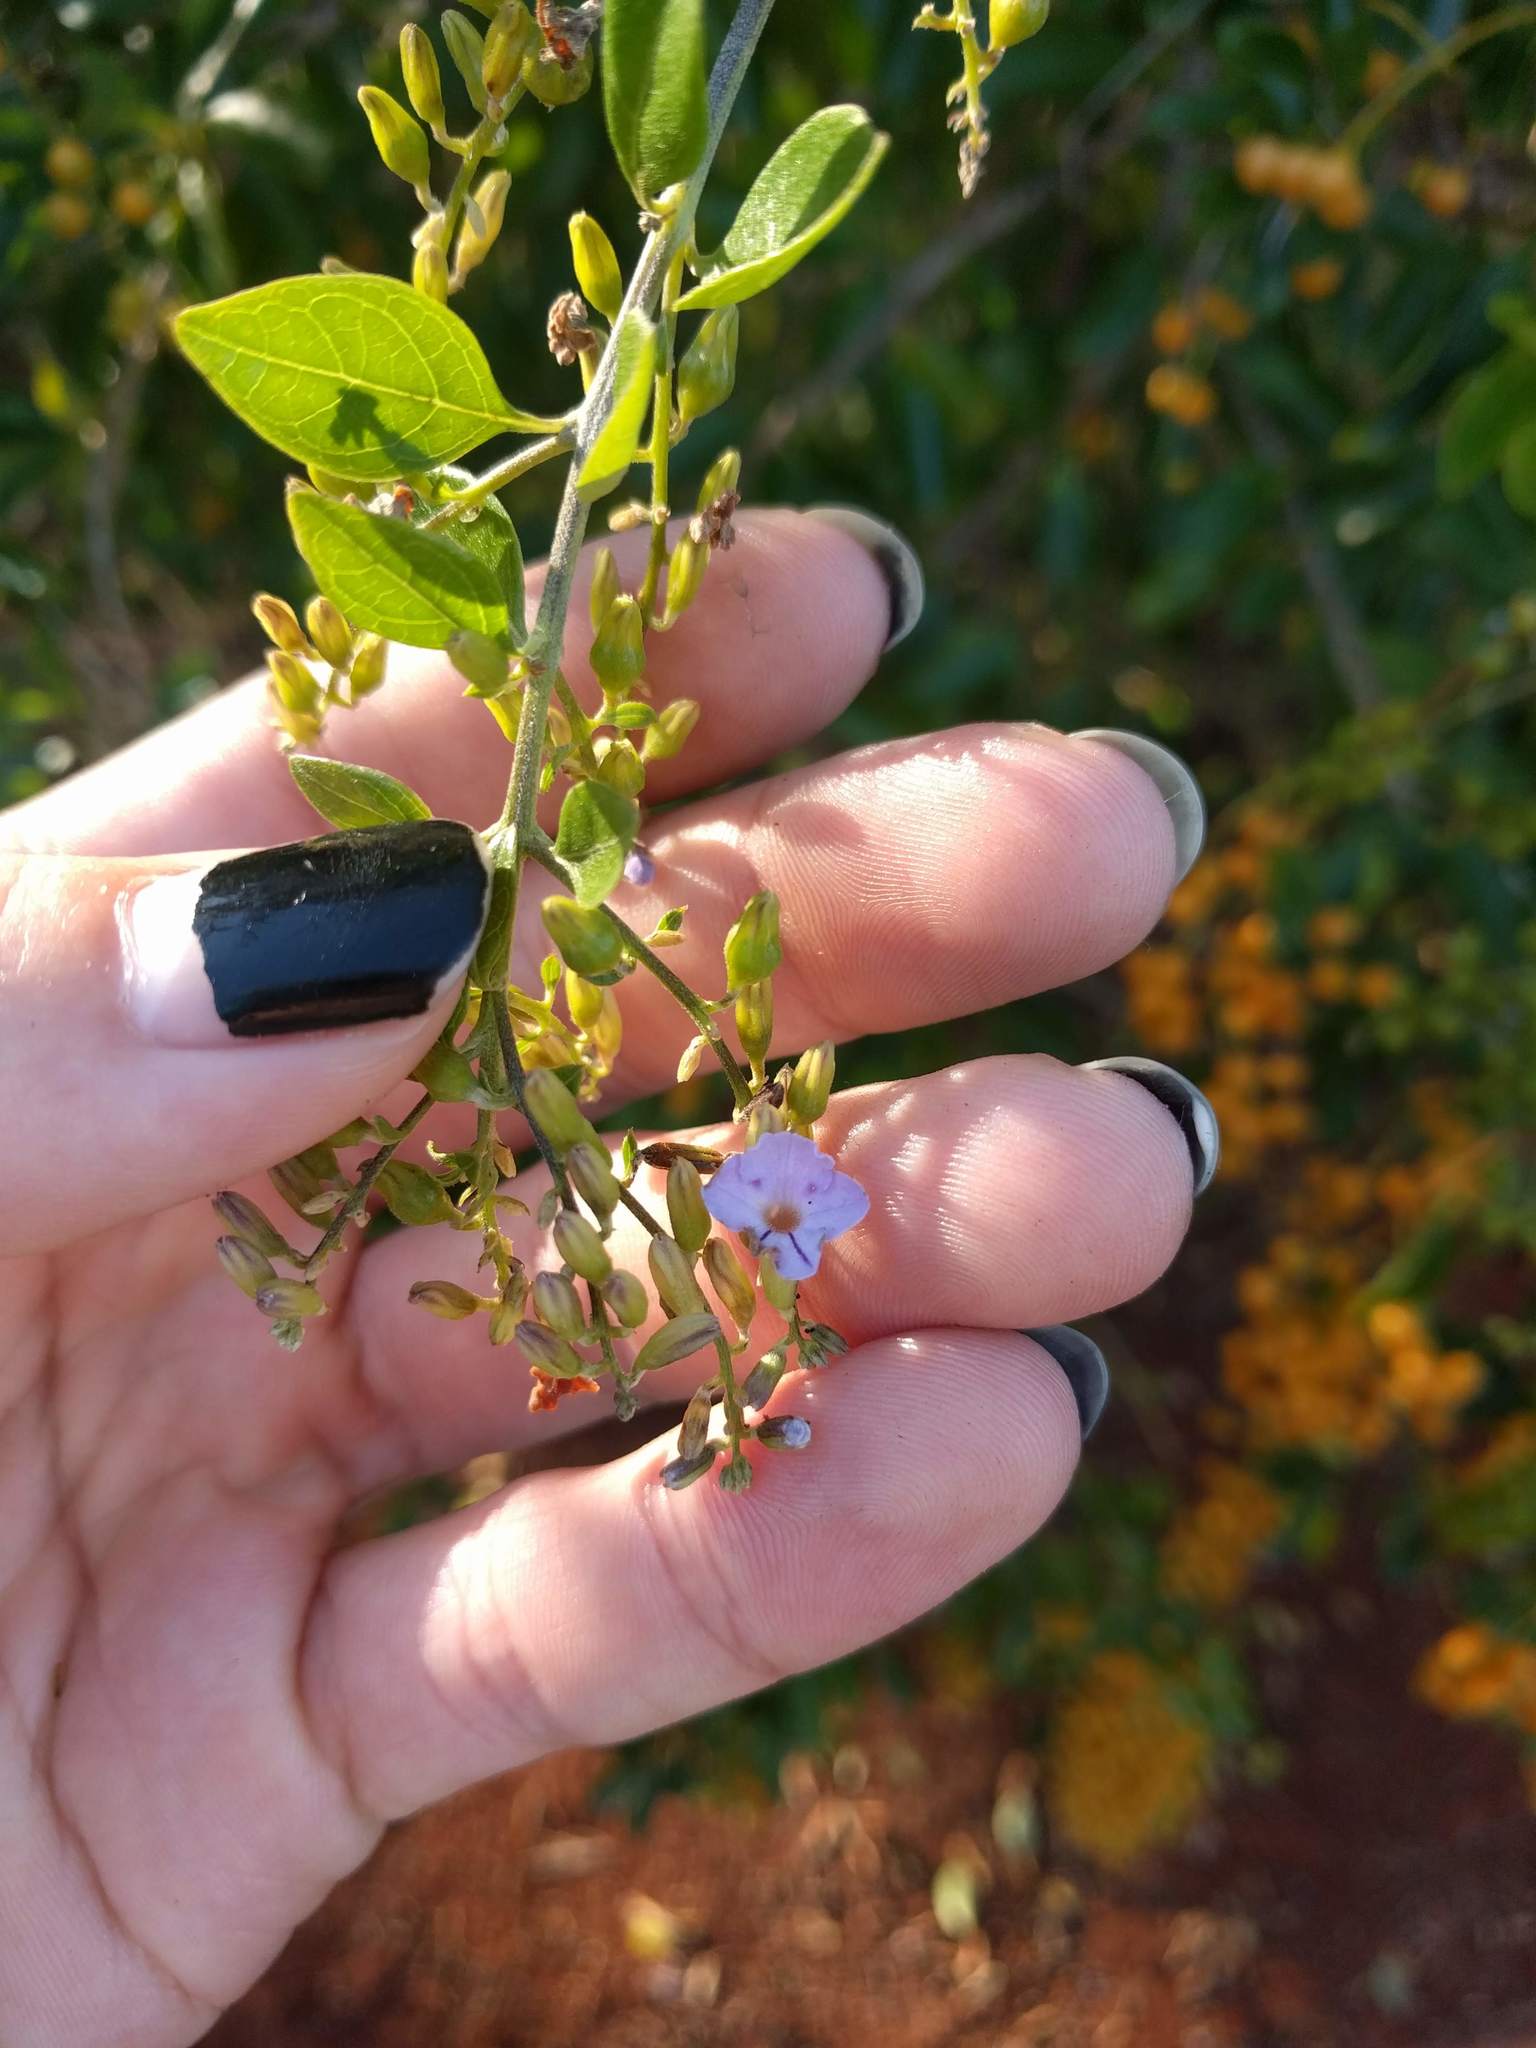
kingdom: Plantae
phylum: Tracheophyta
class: Magnoliopsida
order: Lamiales
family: Verbenaceae
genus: Duranta
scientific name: Duranta erecta
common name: Golden dewdrops
